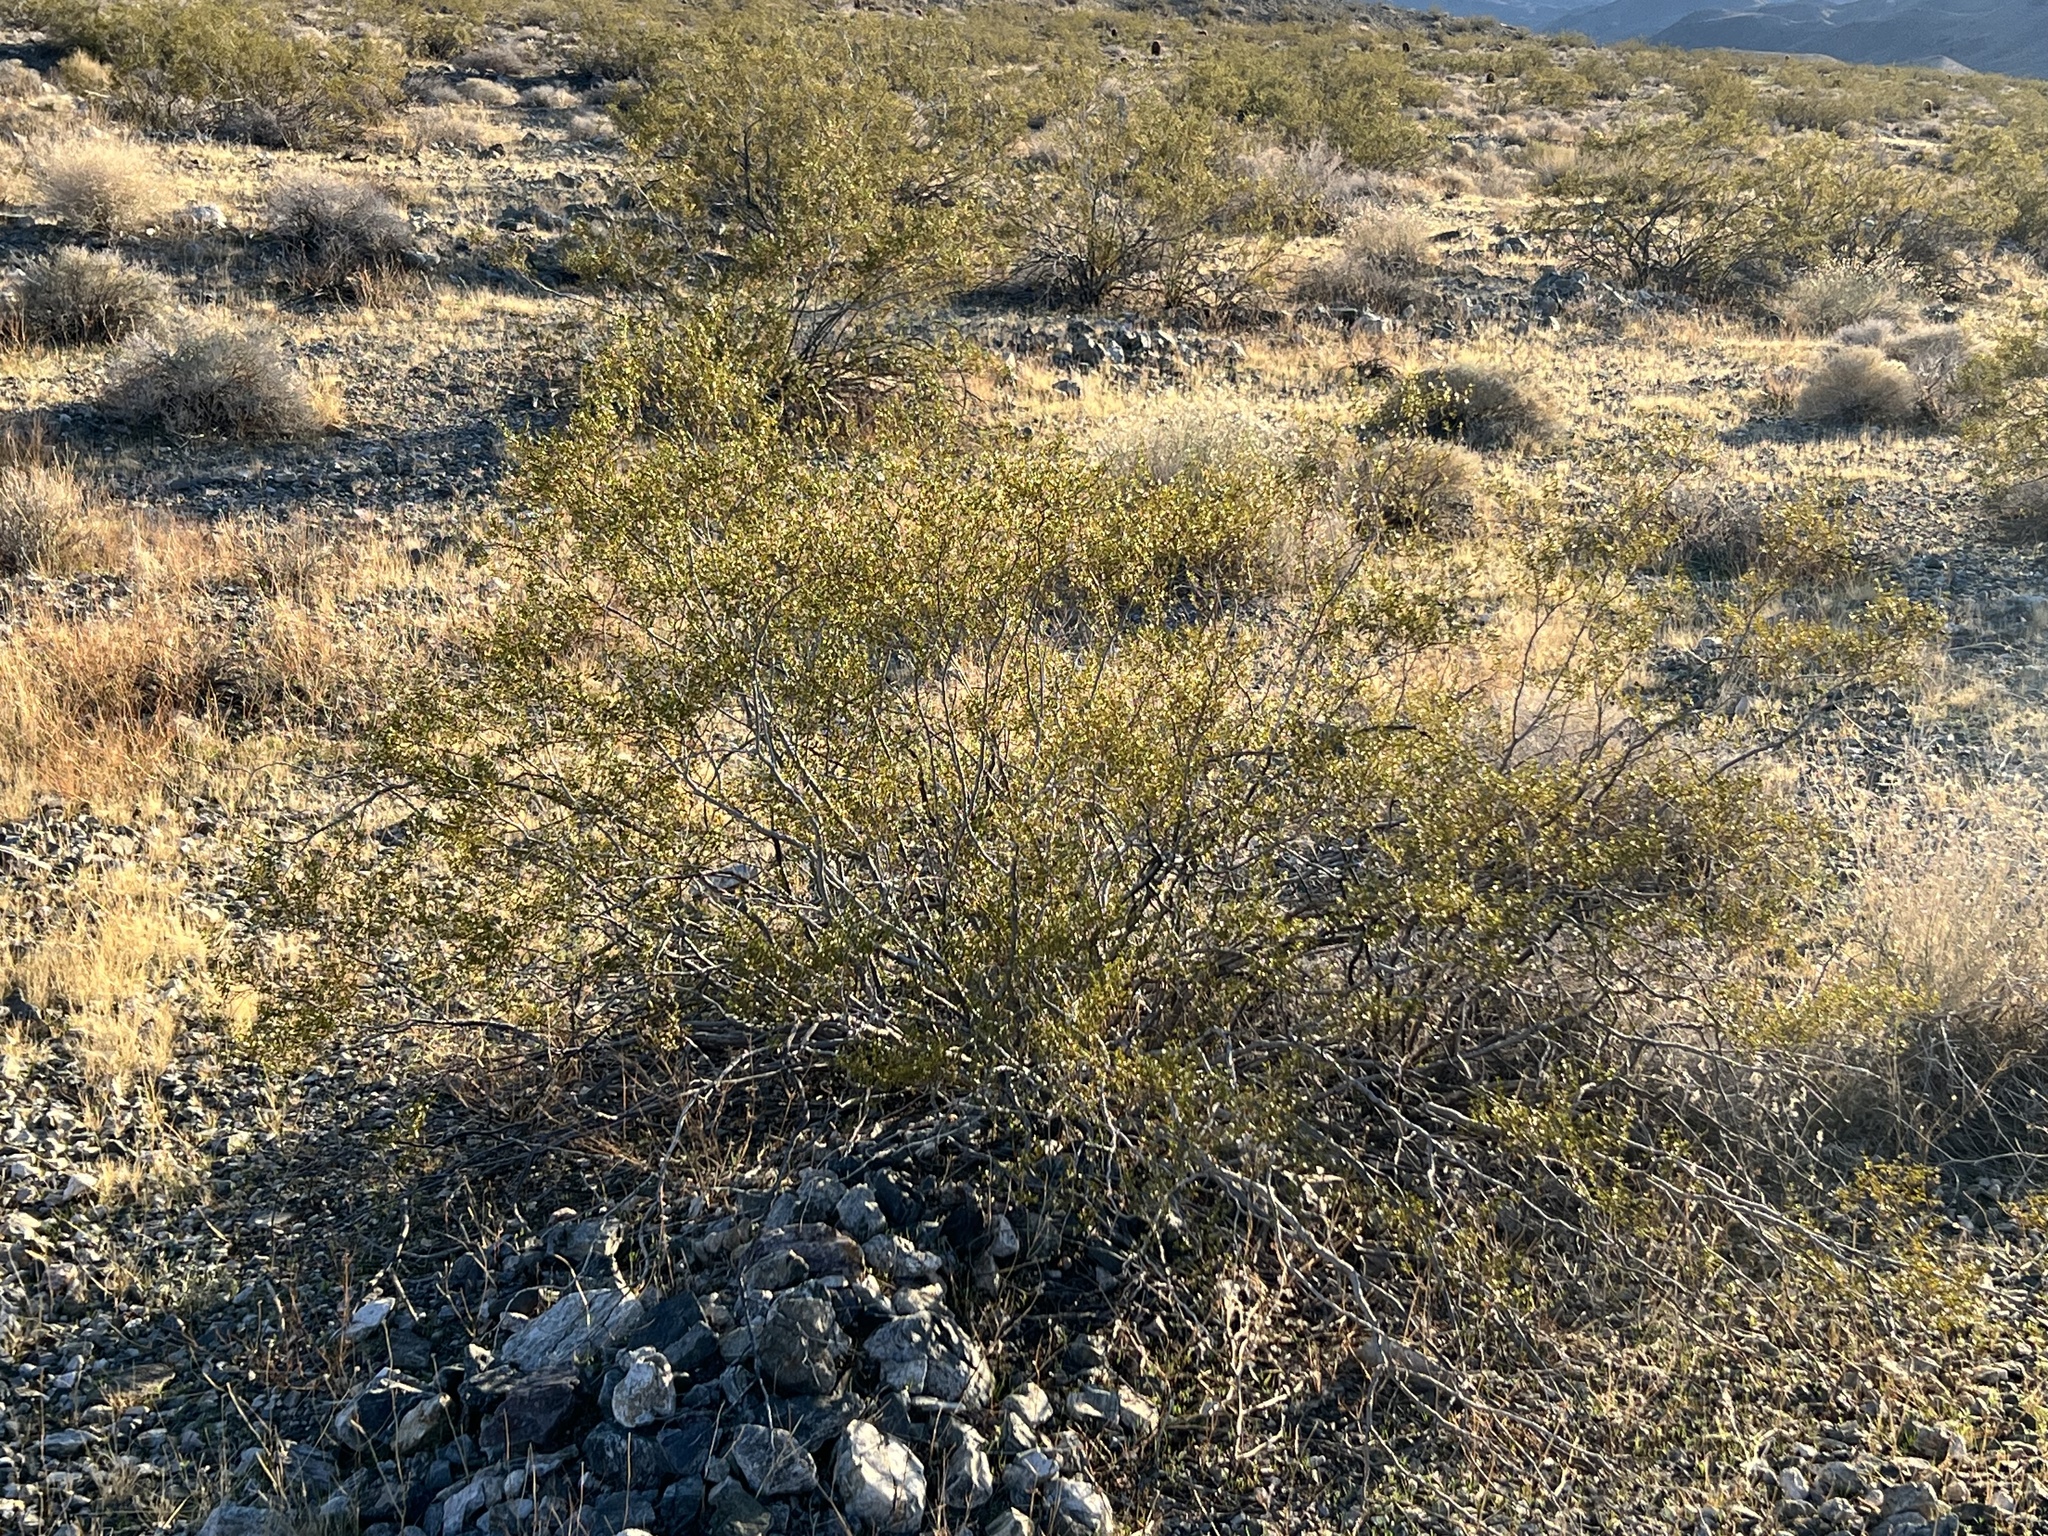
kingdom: Plantae
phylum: Tracheophyta
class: Magnoliopsida
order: Zygophyllales
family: Zygophyllaceae
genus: Larrea
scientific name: Larrea tridentata
